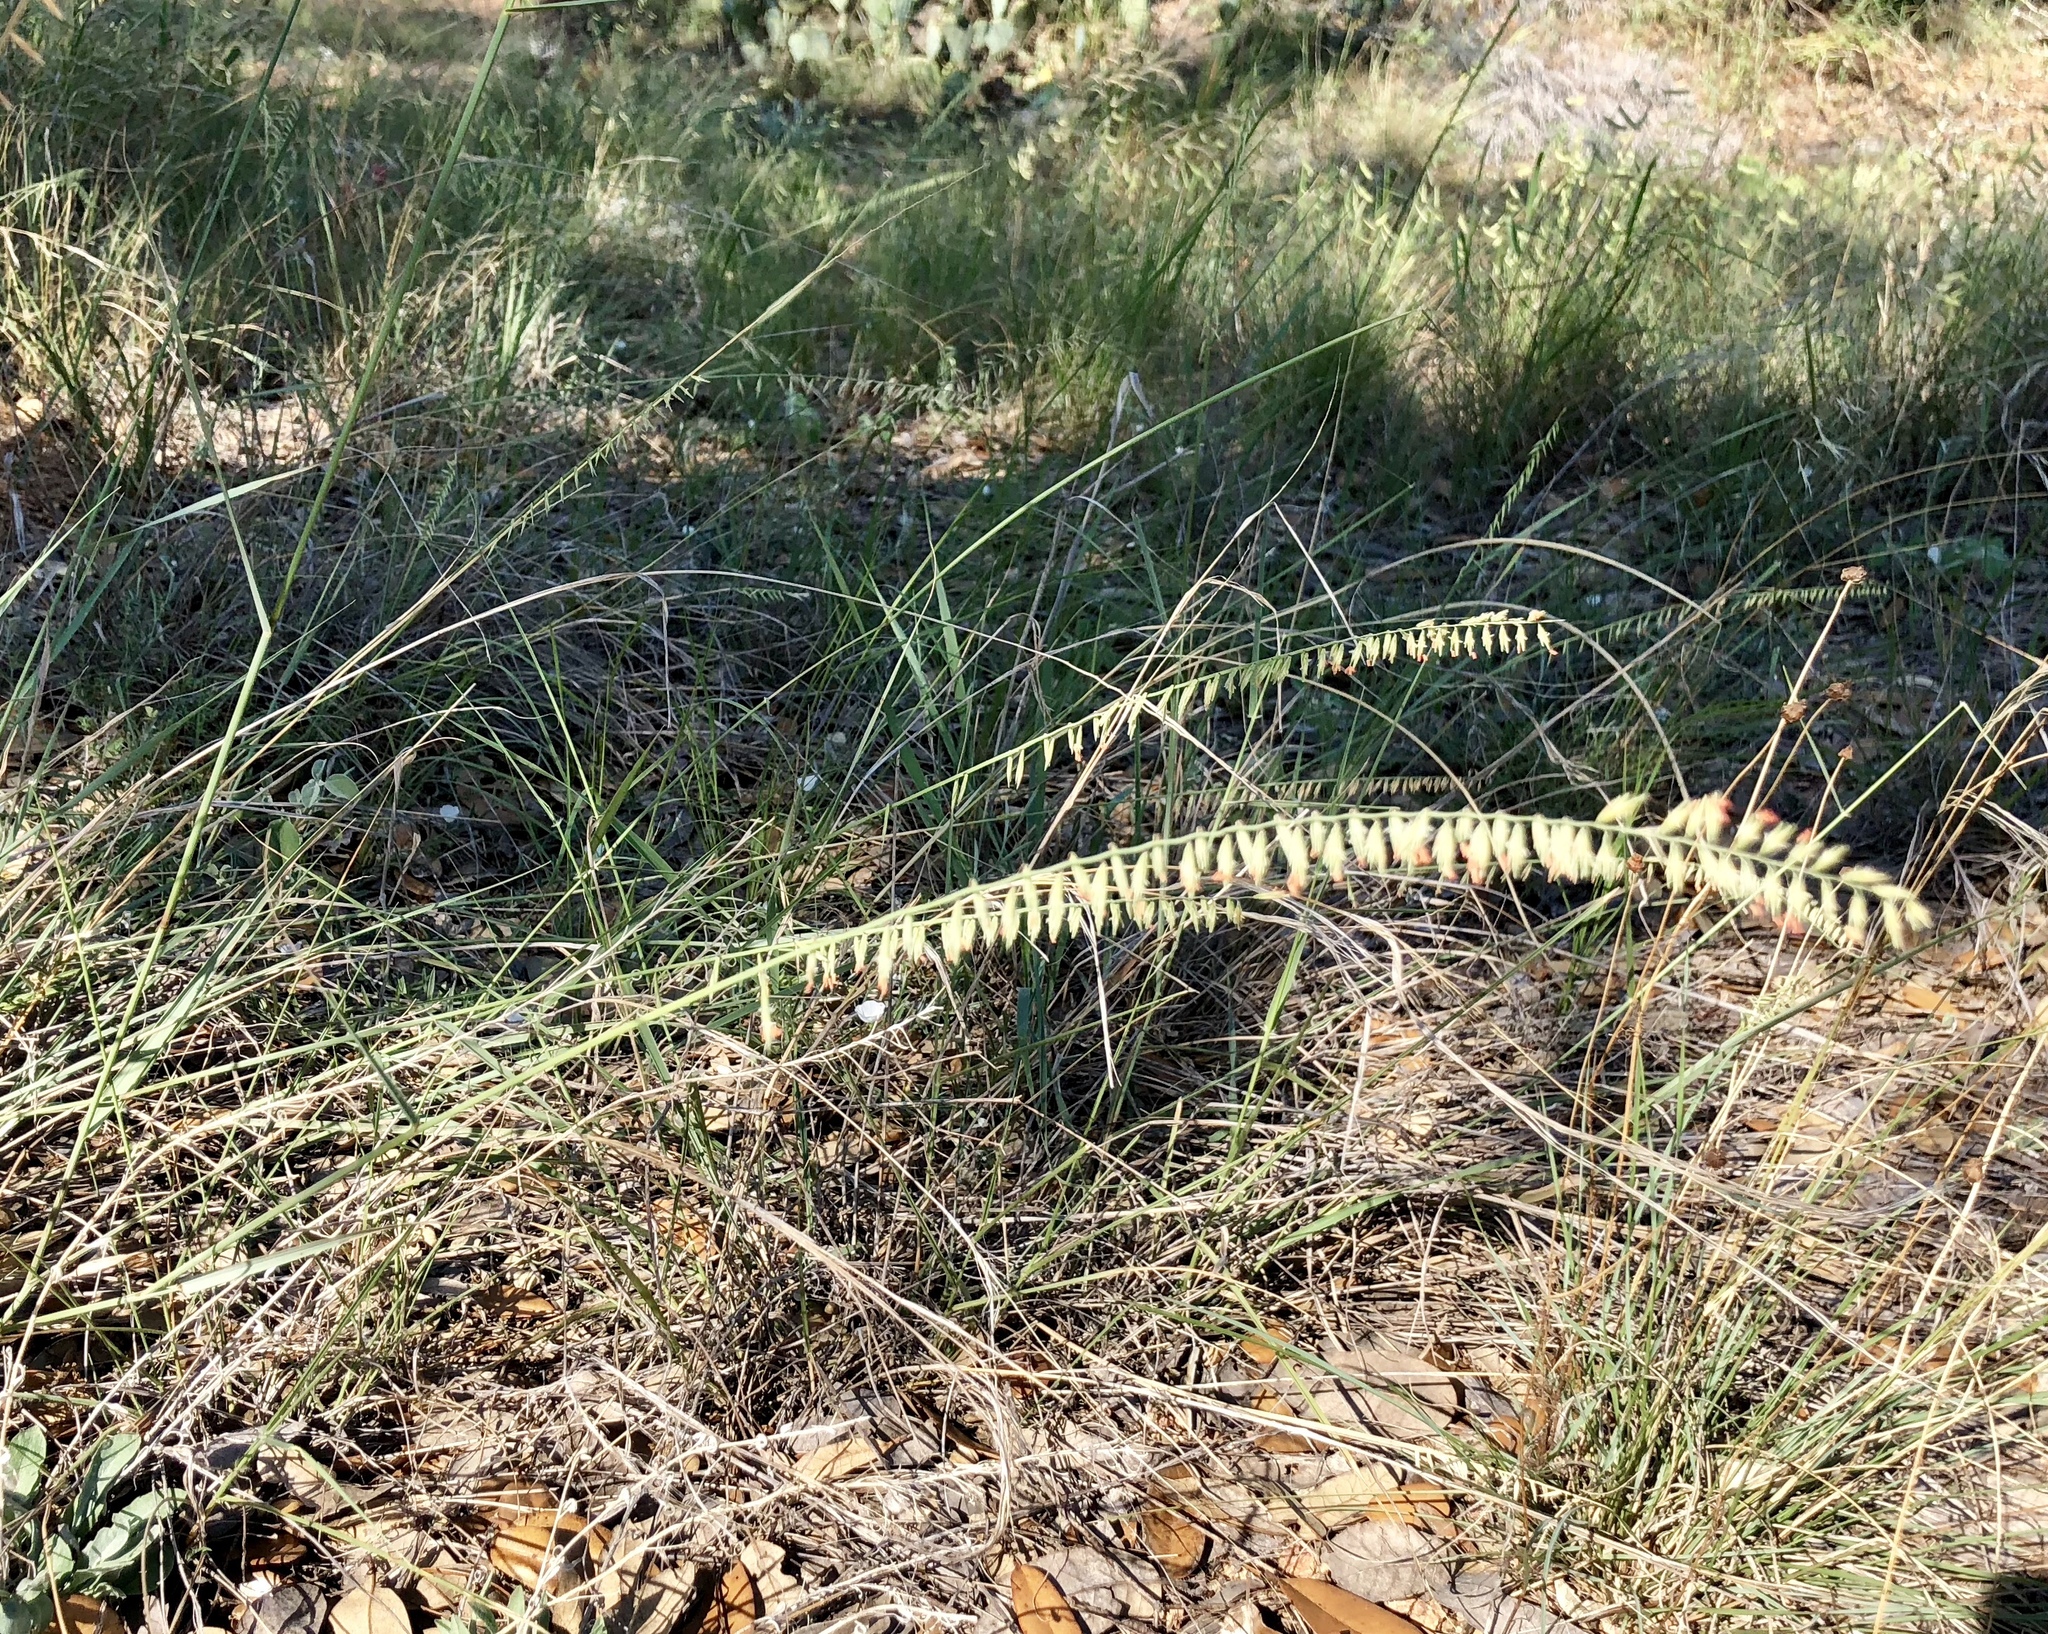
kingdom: Plantae
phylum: Tracheophyta
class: Liliopsida
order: Poales
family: Poaceae
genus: Bouteloua
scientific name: Bouteloua curtipendula
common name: Side-oats grama
